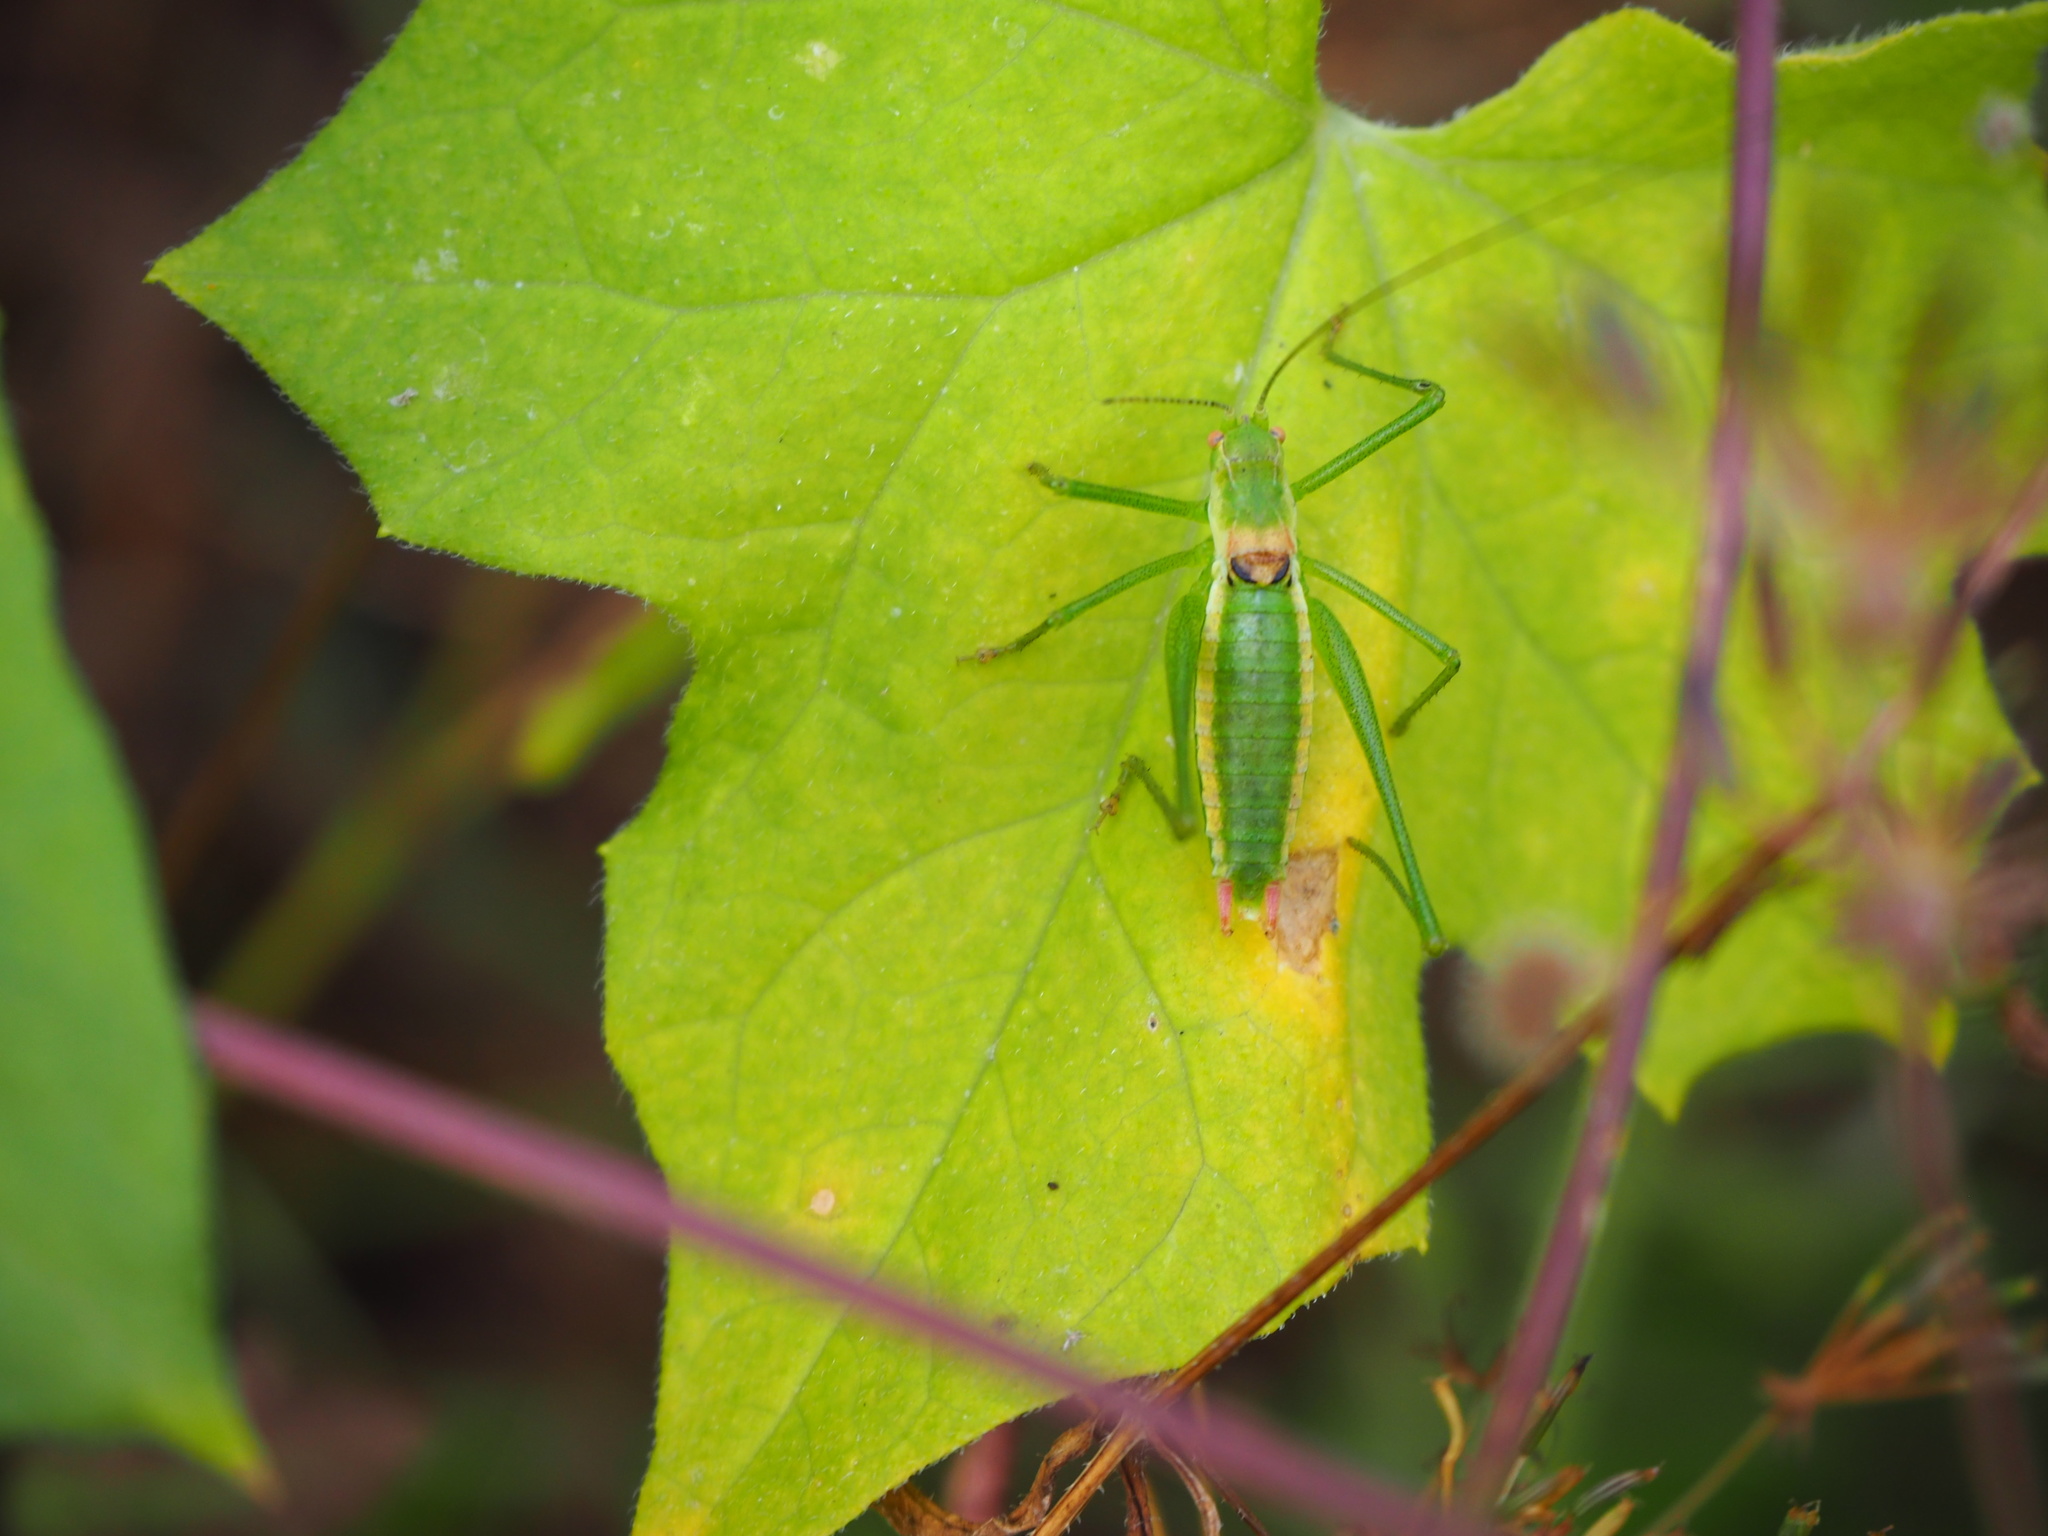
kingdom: Animalia
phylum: Arthropoda
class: Insecta
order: Orthoptera
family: Tettigoniidae
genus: Leptophyes
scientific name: Leptophyes boscii
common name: Balkan speckled bush-cricket
